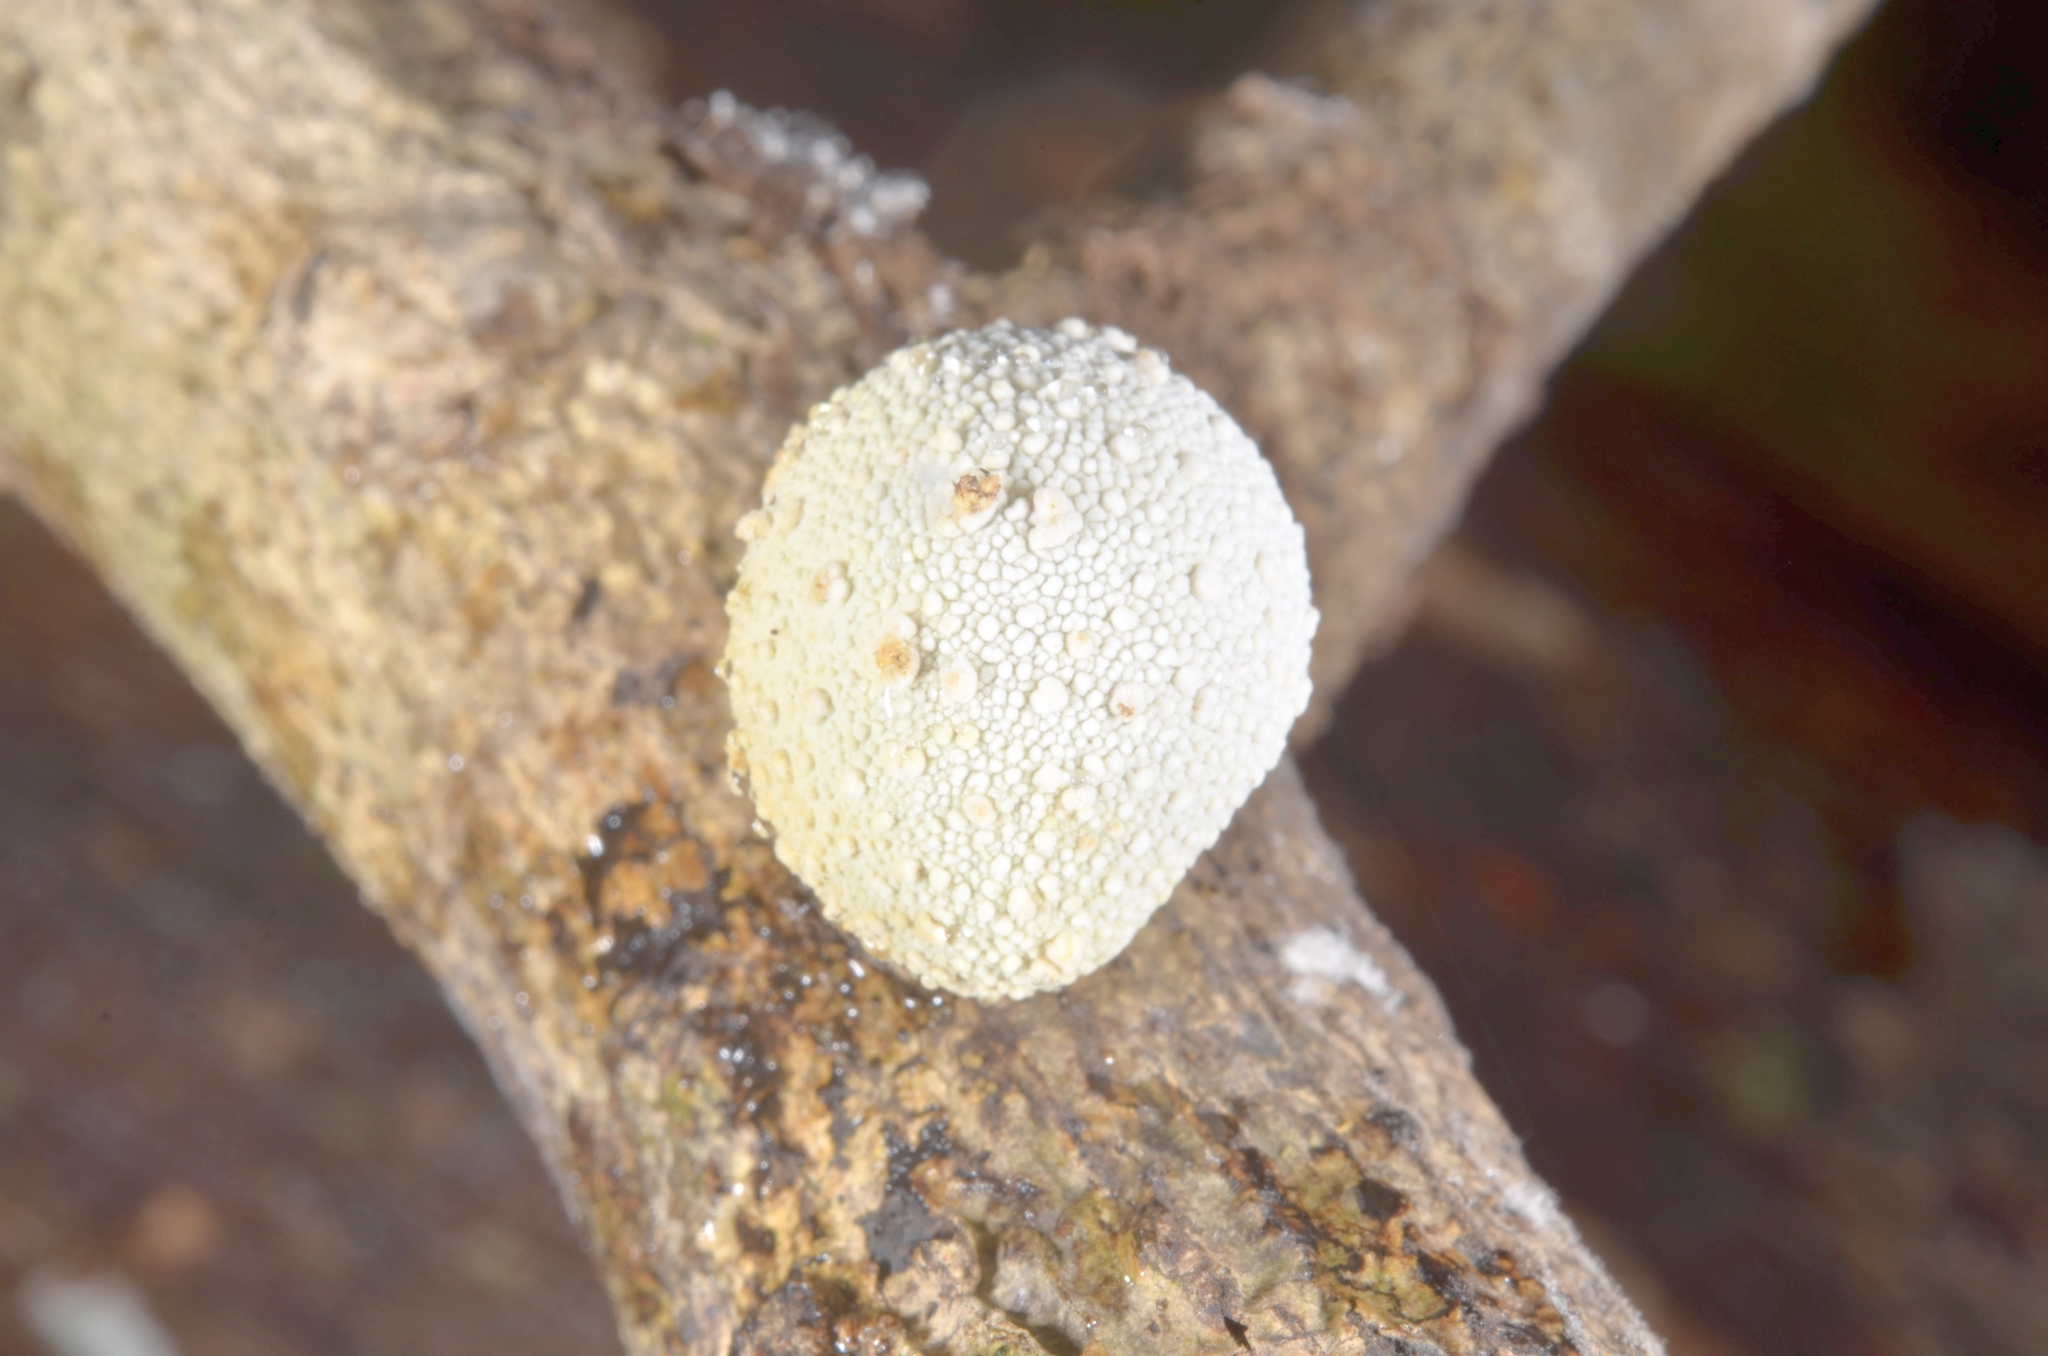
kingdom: Fungi
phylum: Ascomycota
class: Sordariomycetes
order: Xylariales
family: Xylariaceae
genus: Xylaria
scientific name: Xylaria compuncta
